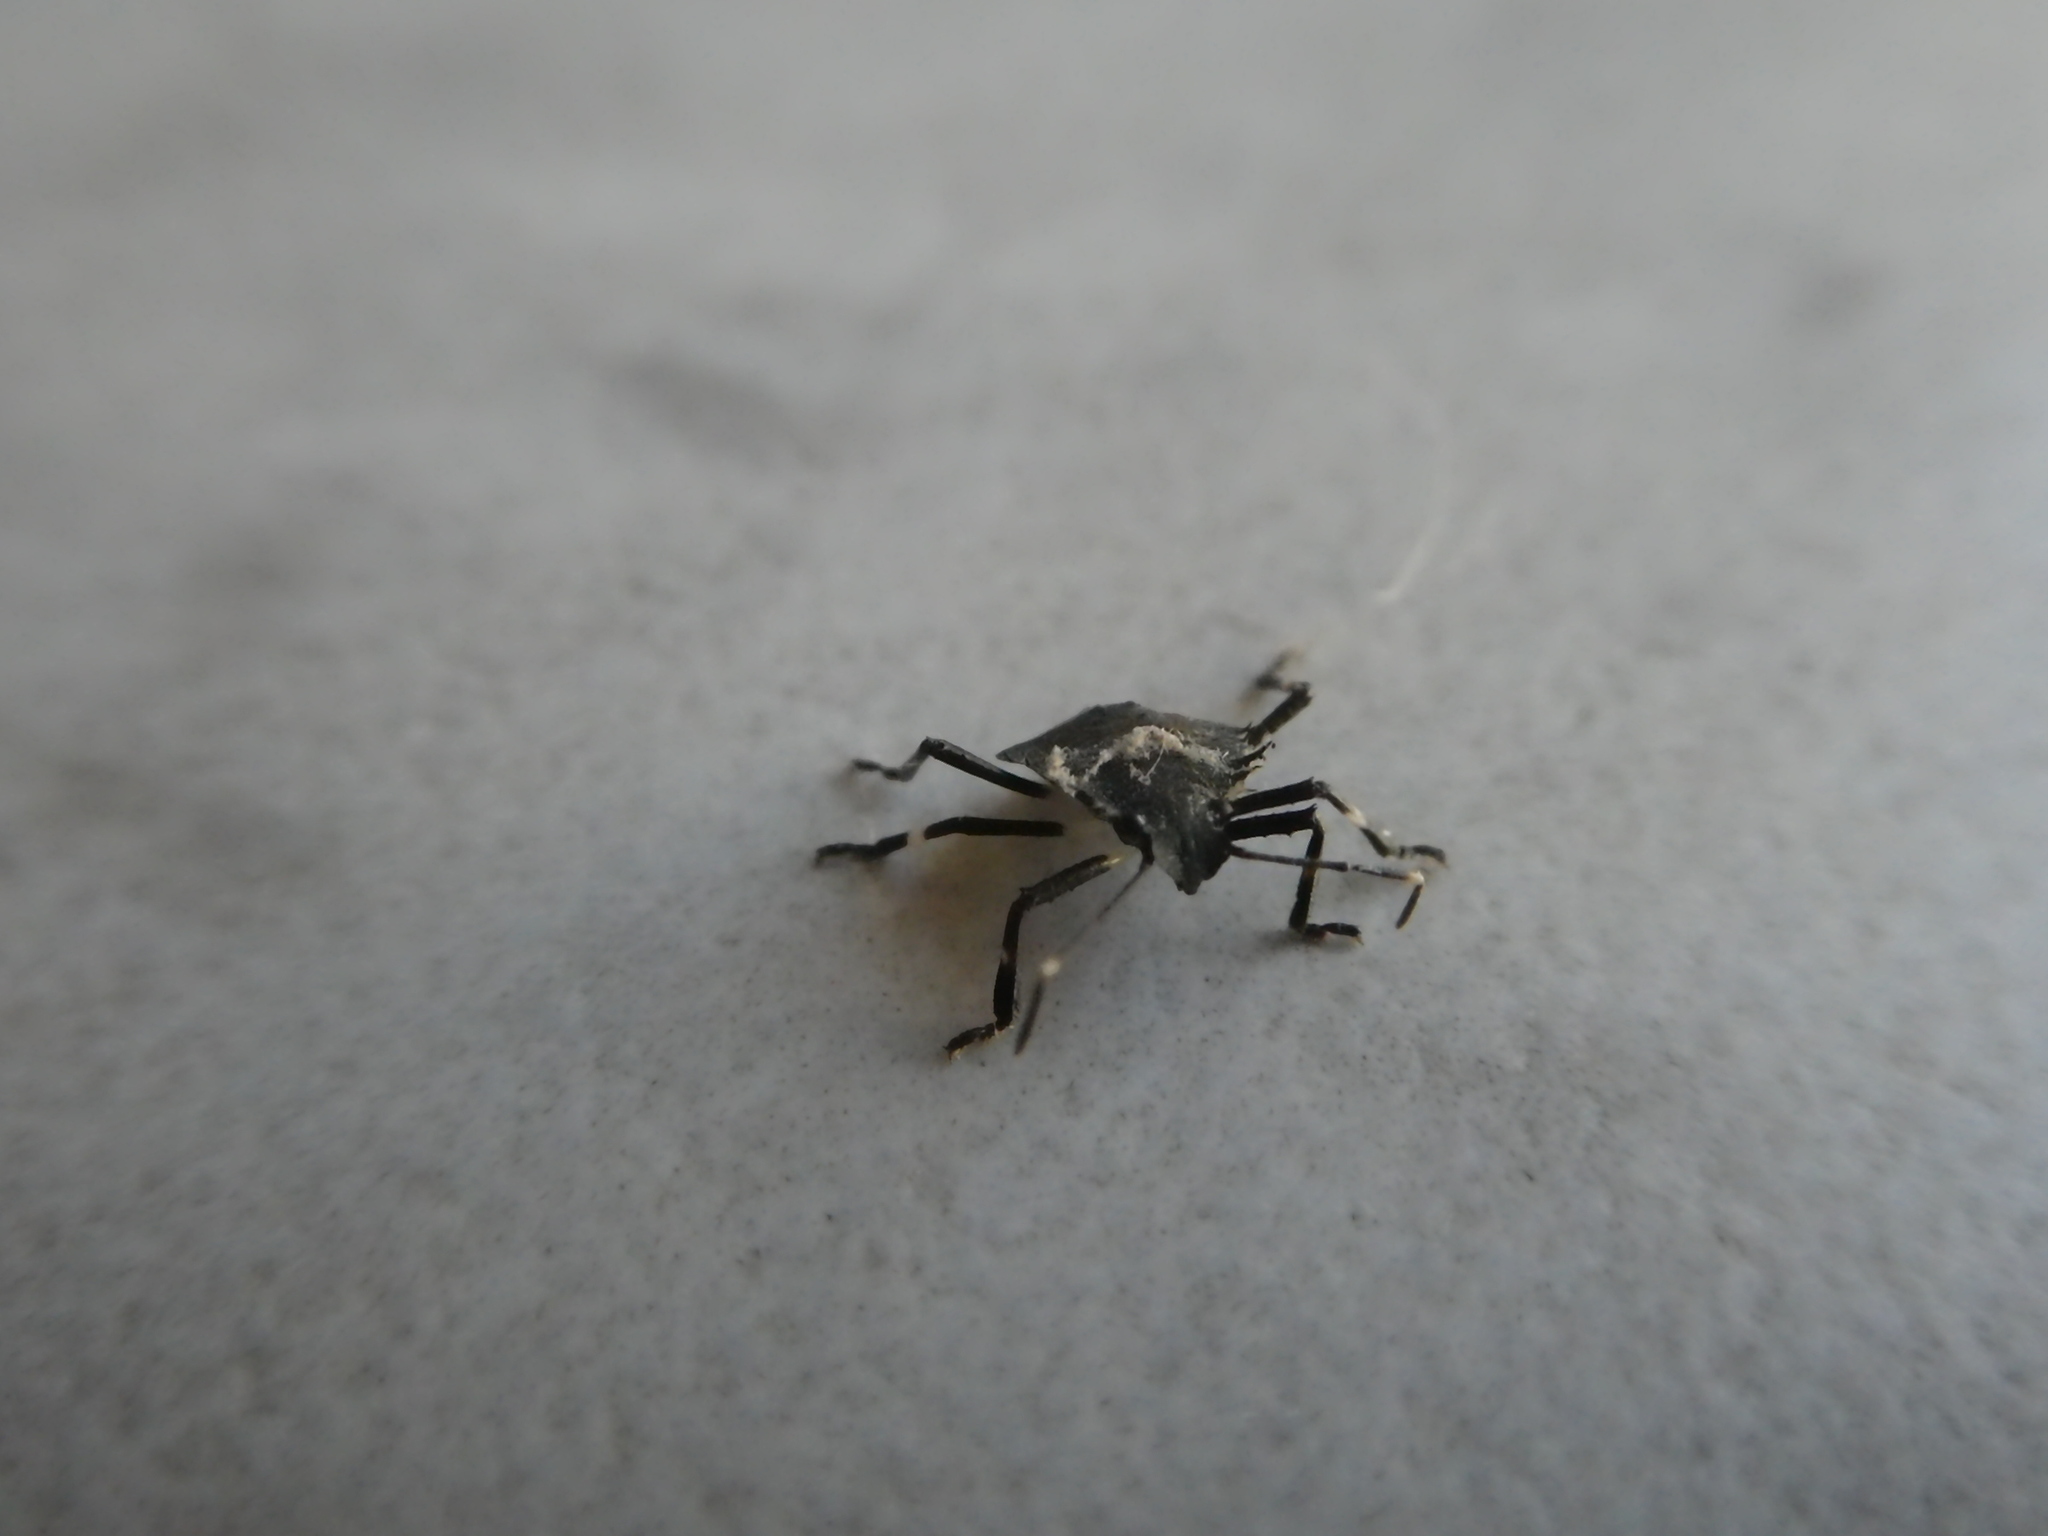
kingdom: Animalia
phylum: Arthropoda
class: Insecta
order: Hemiptera
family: Pentatomidae
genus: Halyomorpha
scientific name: Halyomorpha halys
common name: Brown marmorated stink bug
